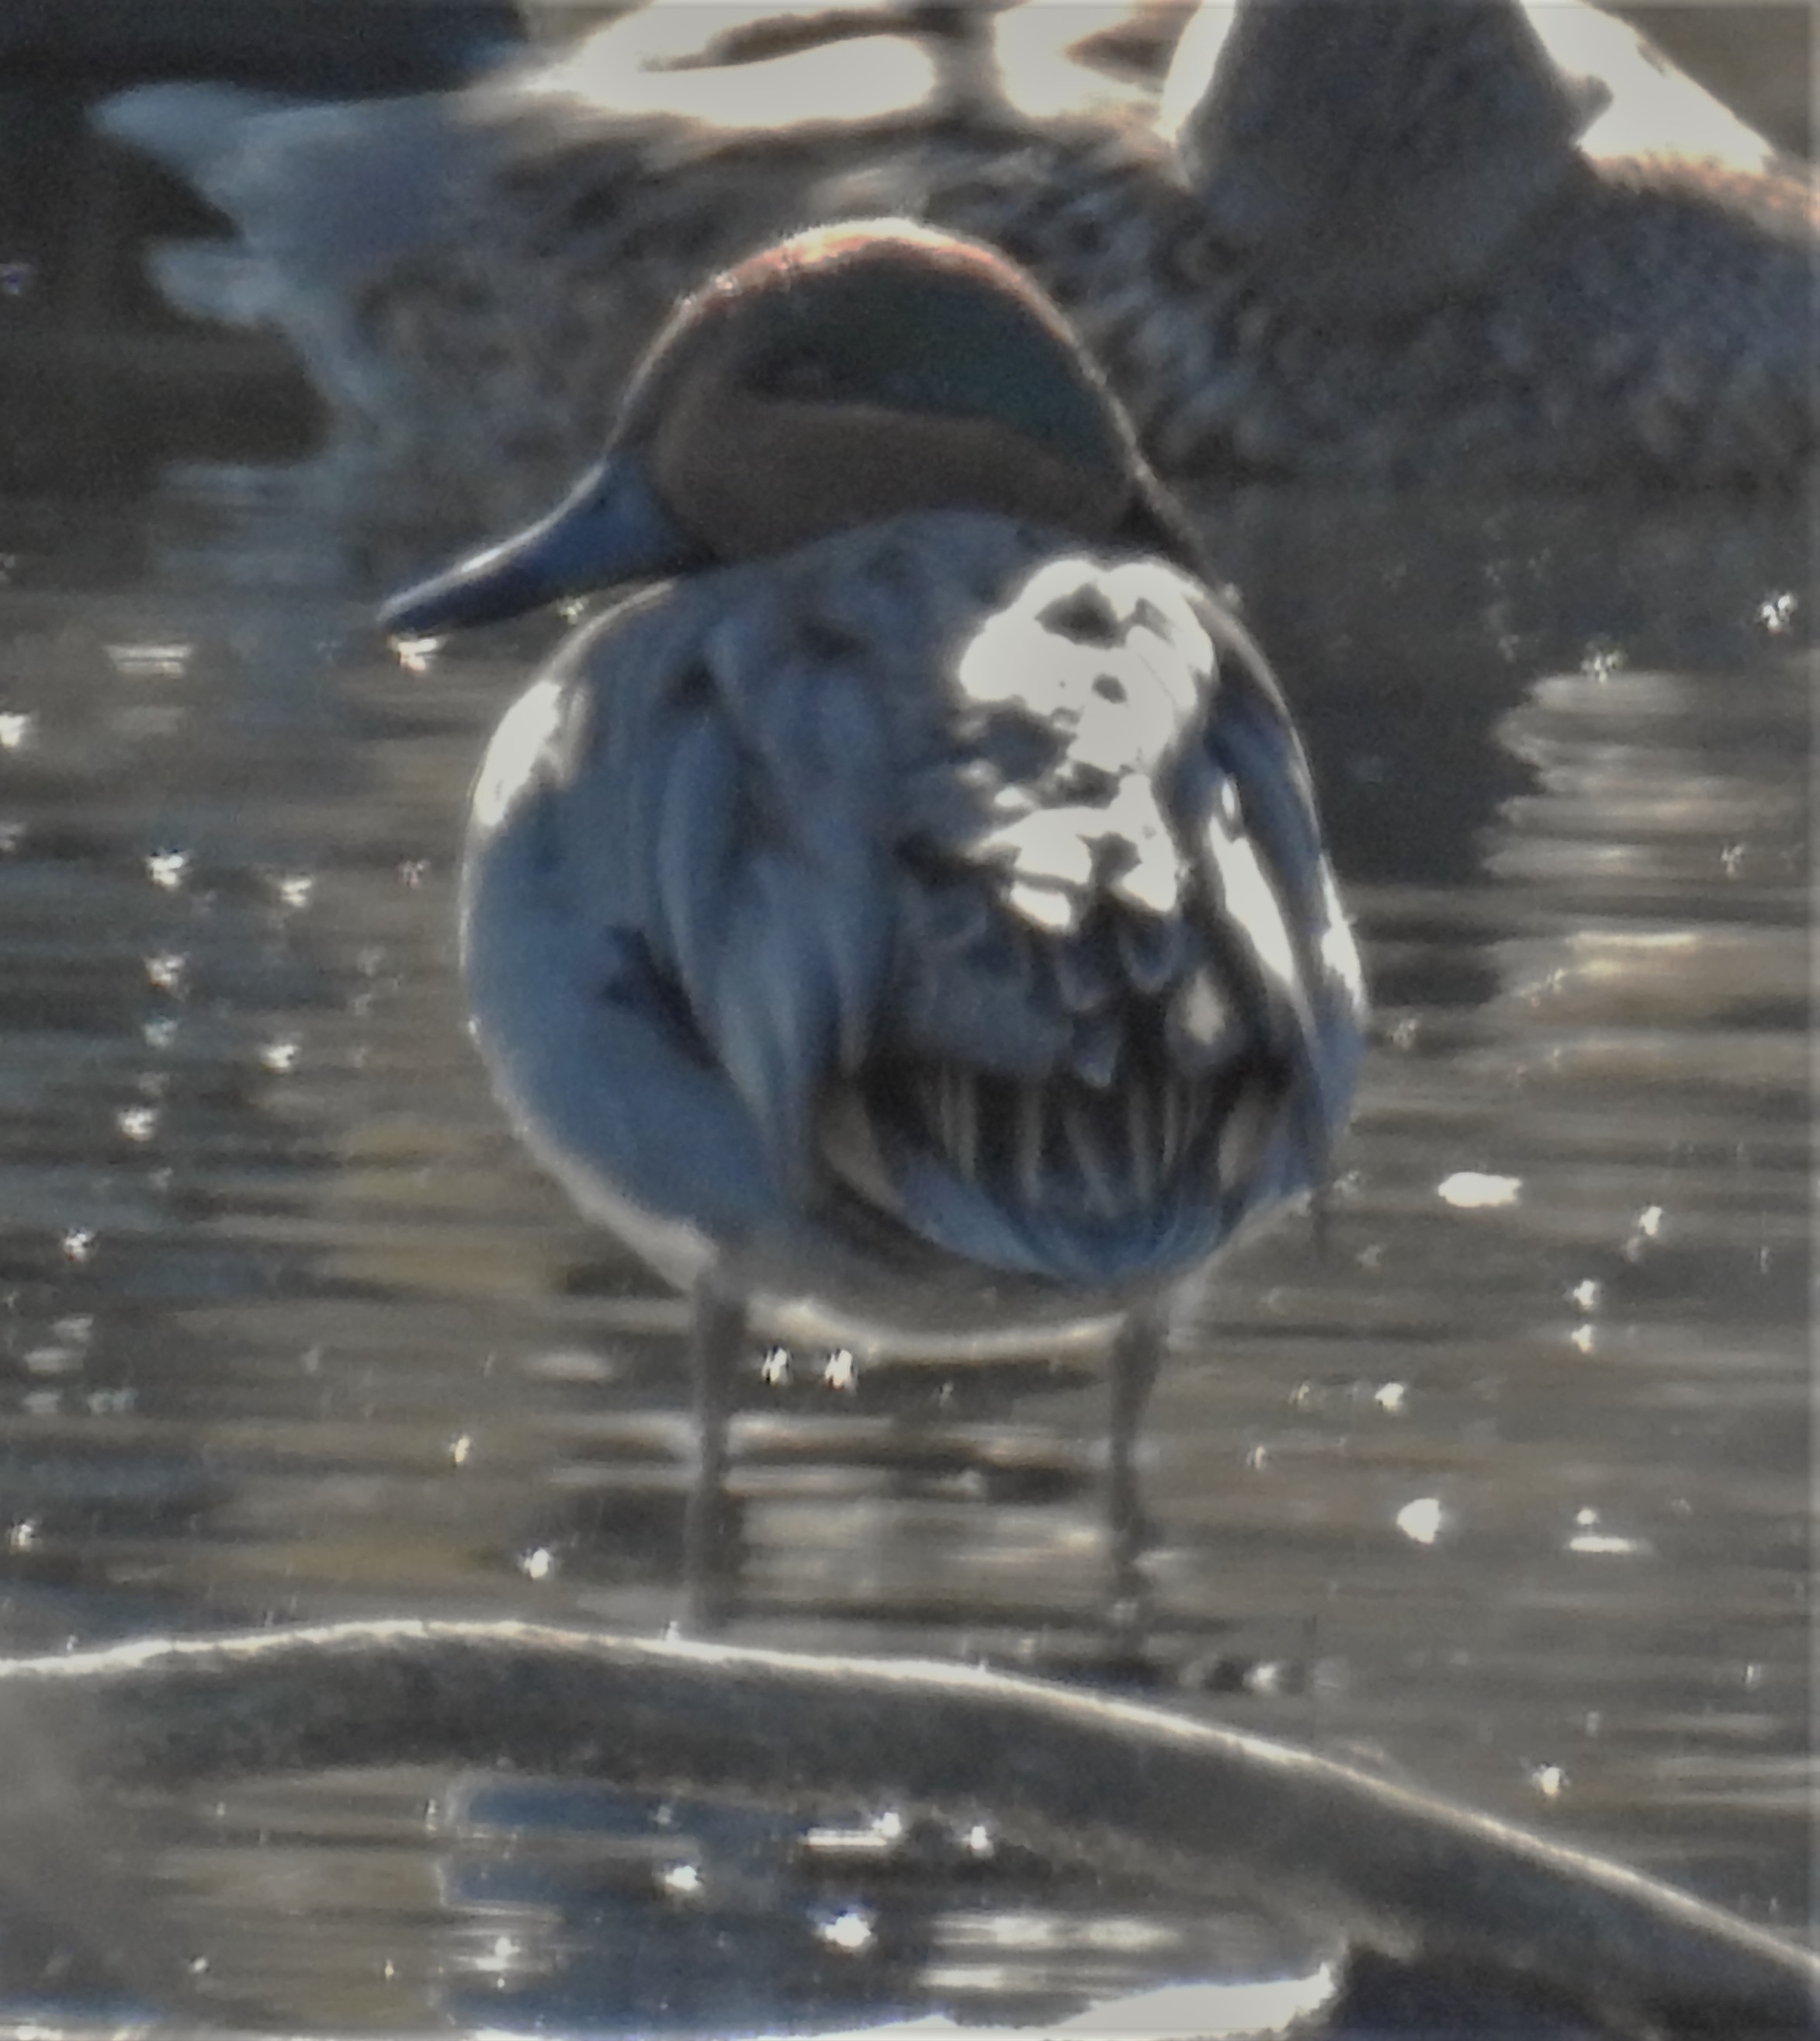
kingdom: Animalia
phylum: Chordata
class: Aves
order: Anseriformes
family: Anatidae
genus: Anas
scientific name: Anas crecca
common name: Eurasian teal
